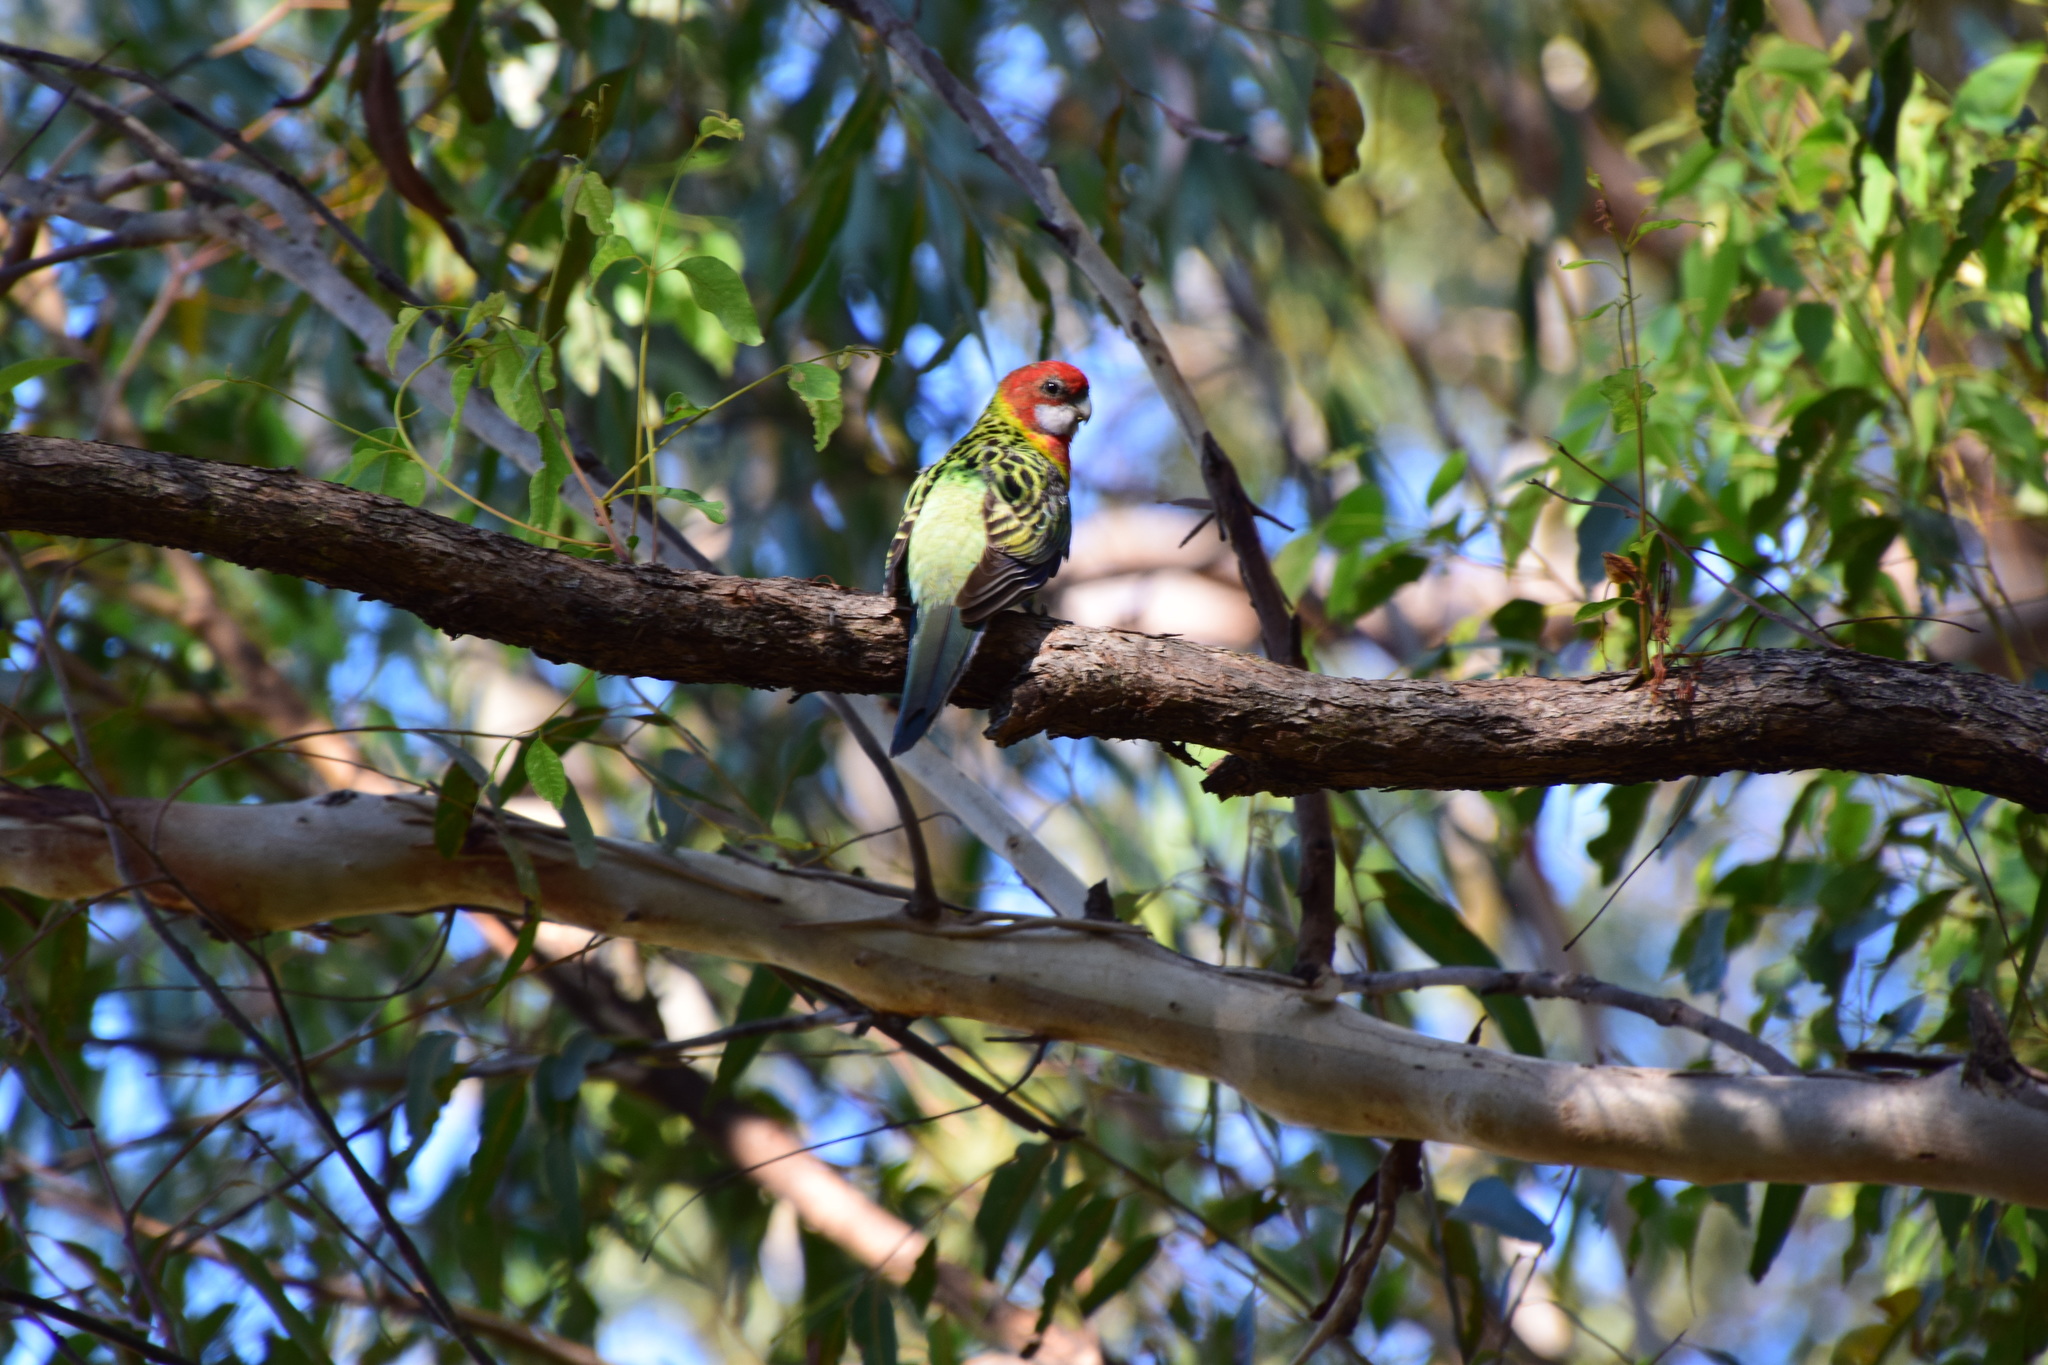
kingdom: Animalia
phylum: Chordata
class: Aves
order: Psittaciformes
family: Psittacidae
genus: Platycercus
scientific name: Platycercus eximius
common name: Eastern rosella
